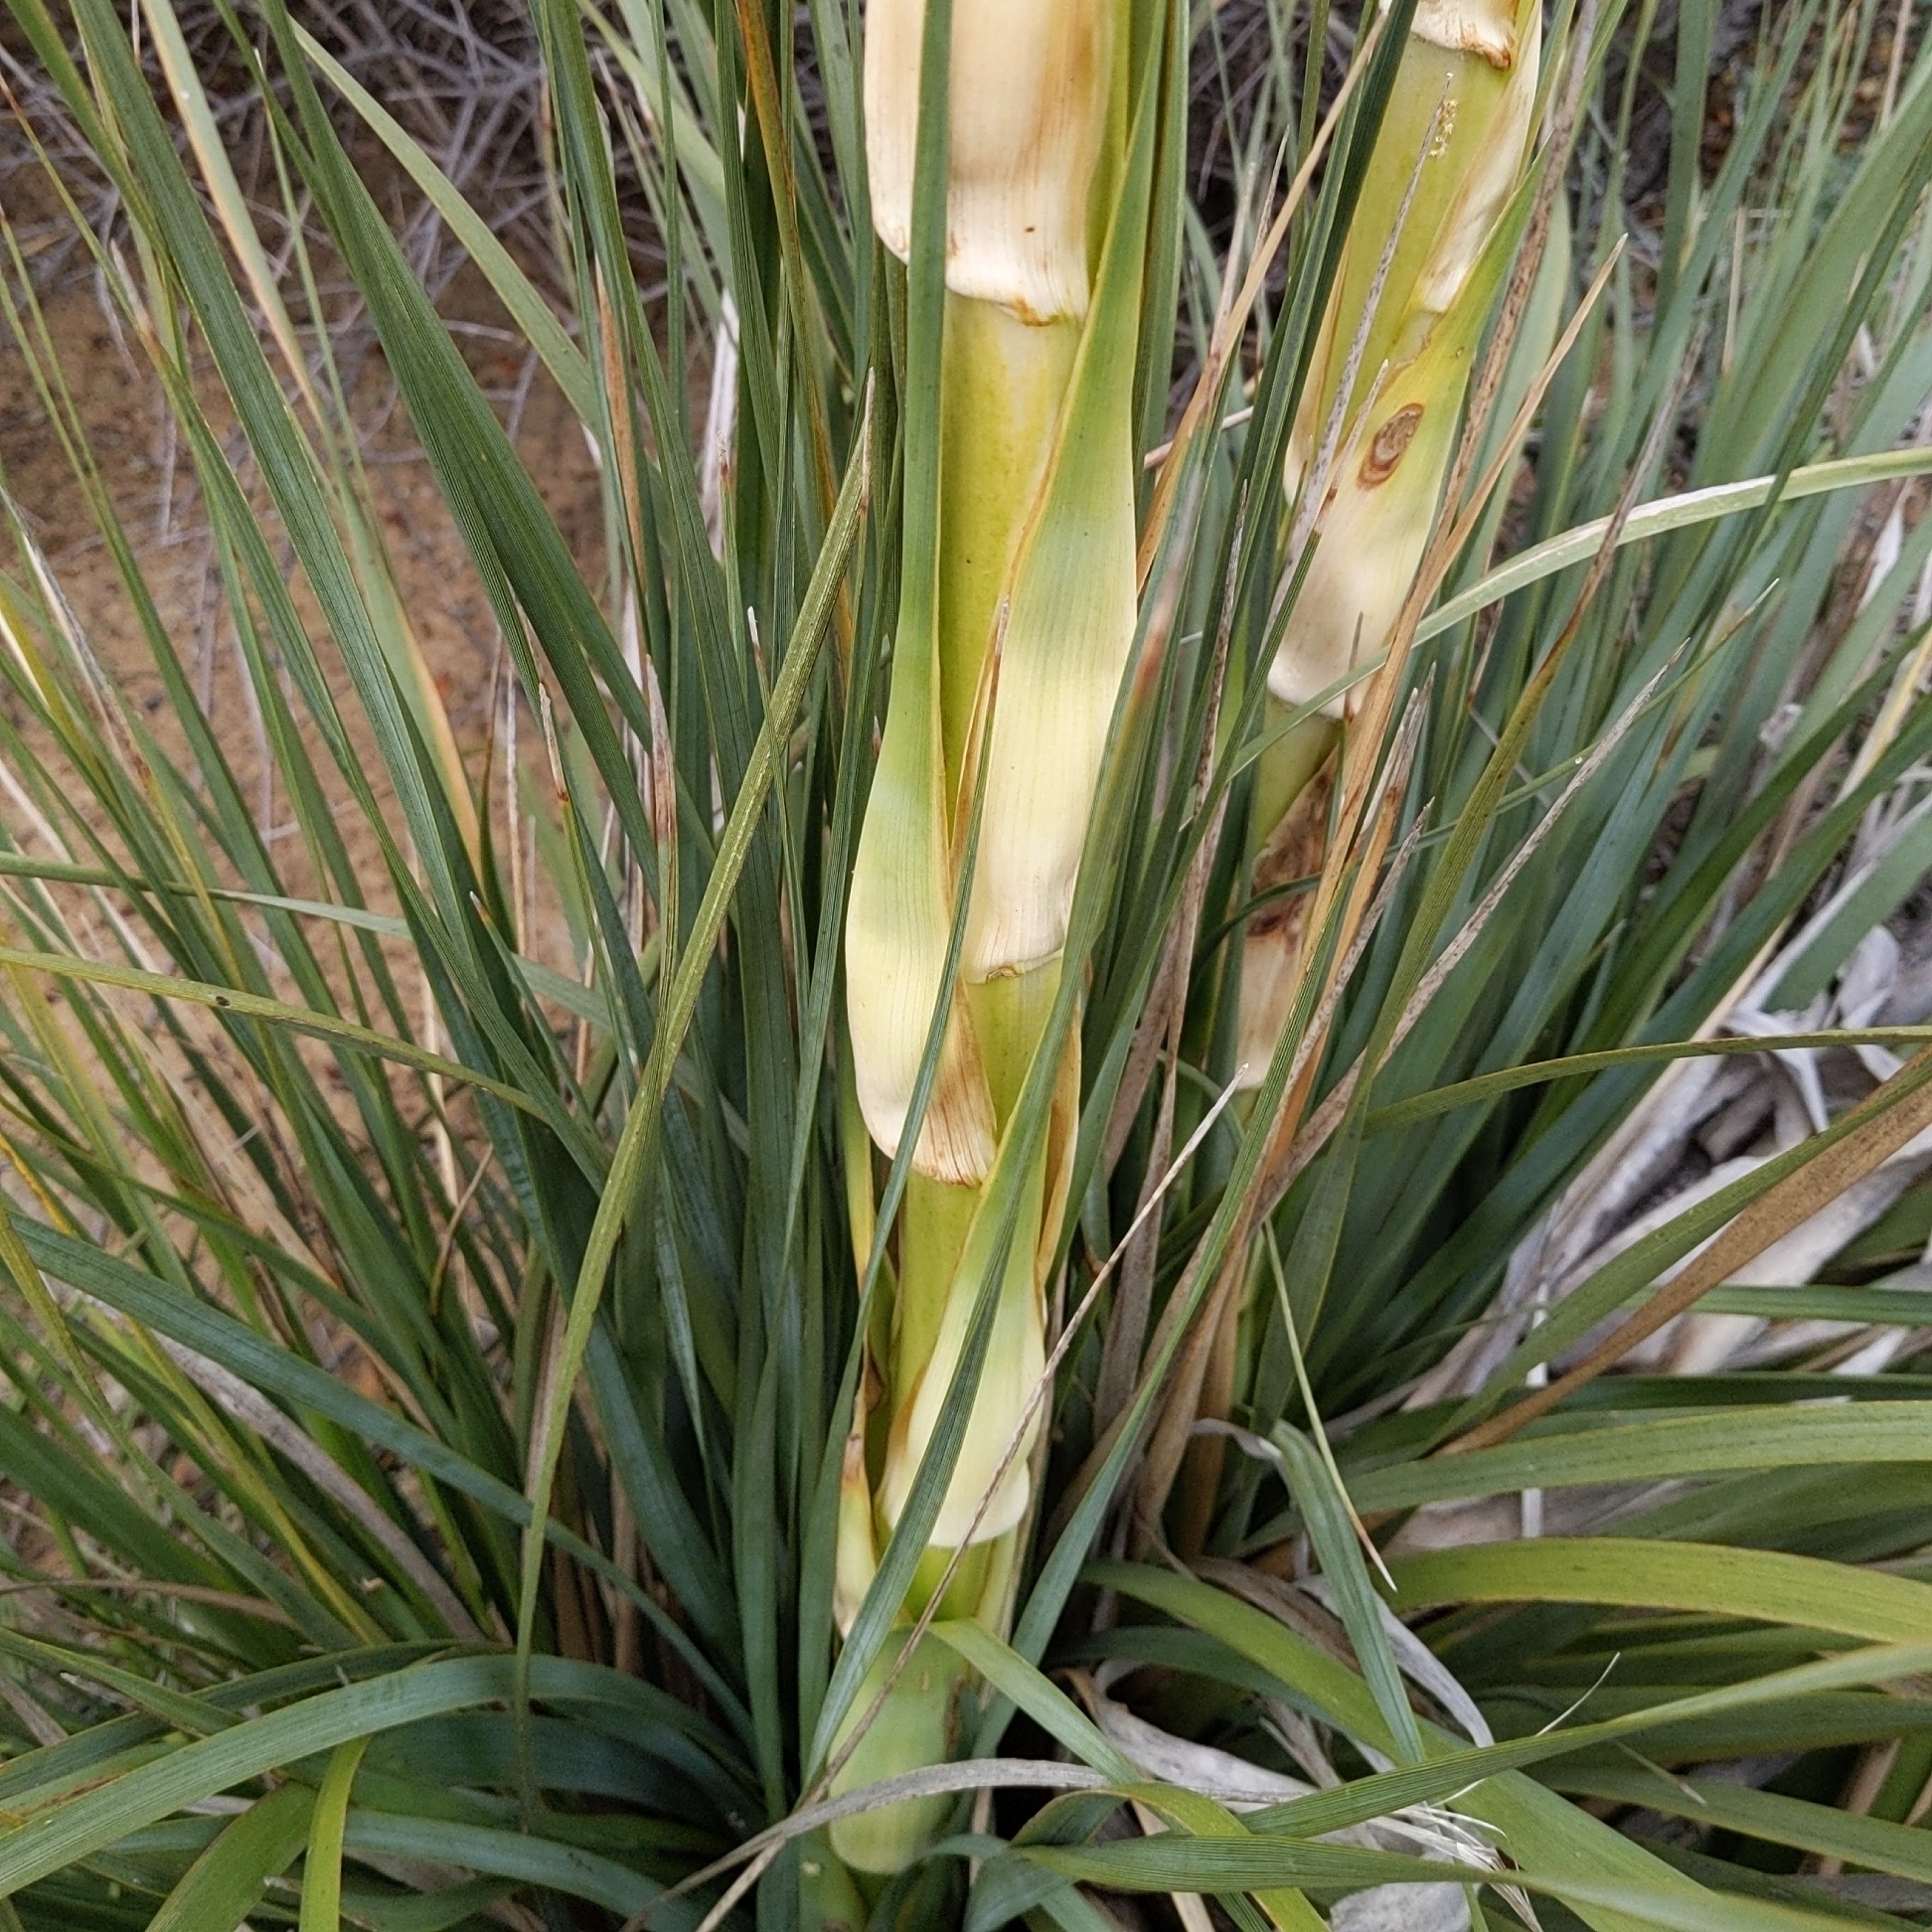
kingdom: Plantae
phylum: Tracheophyta
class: Liliopsida
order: Asparagales
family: Asparagaceae
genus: Nolina
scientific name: Nolina cismontana
